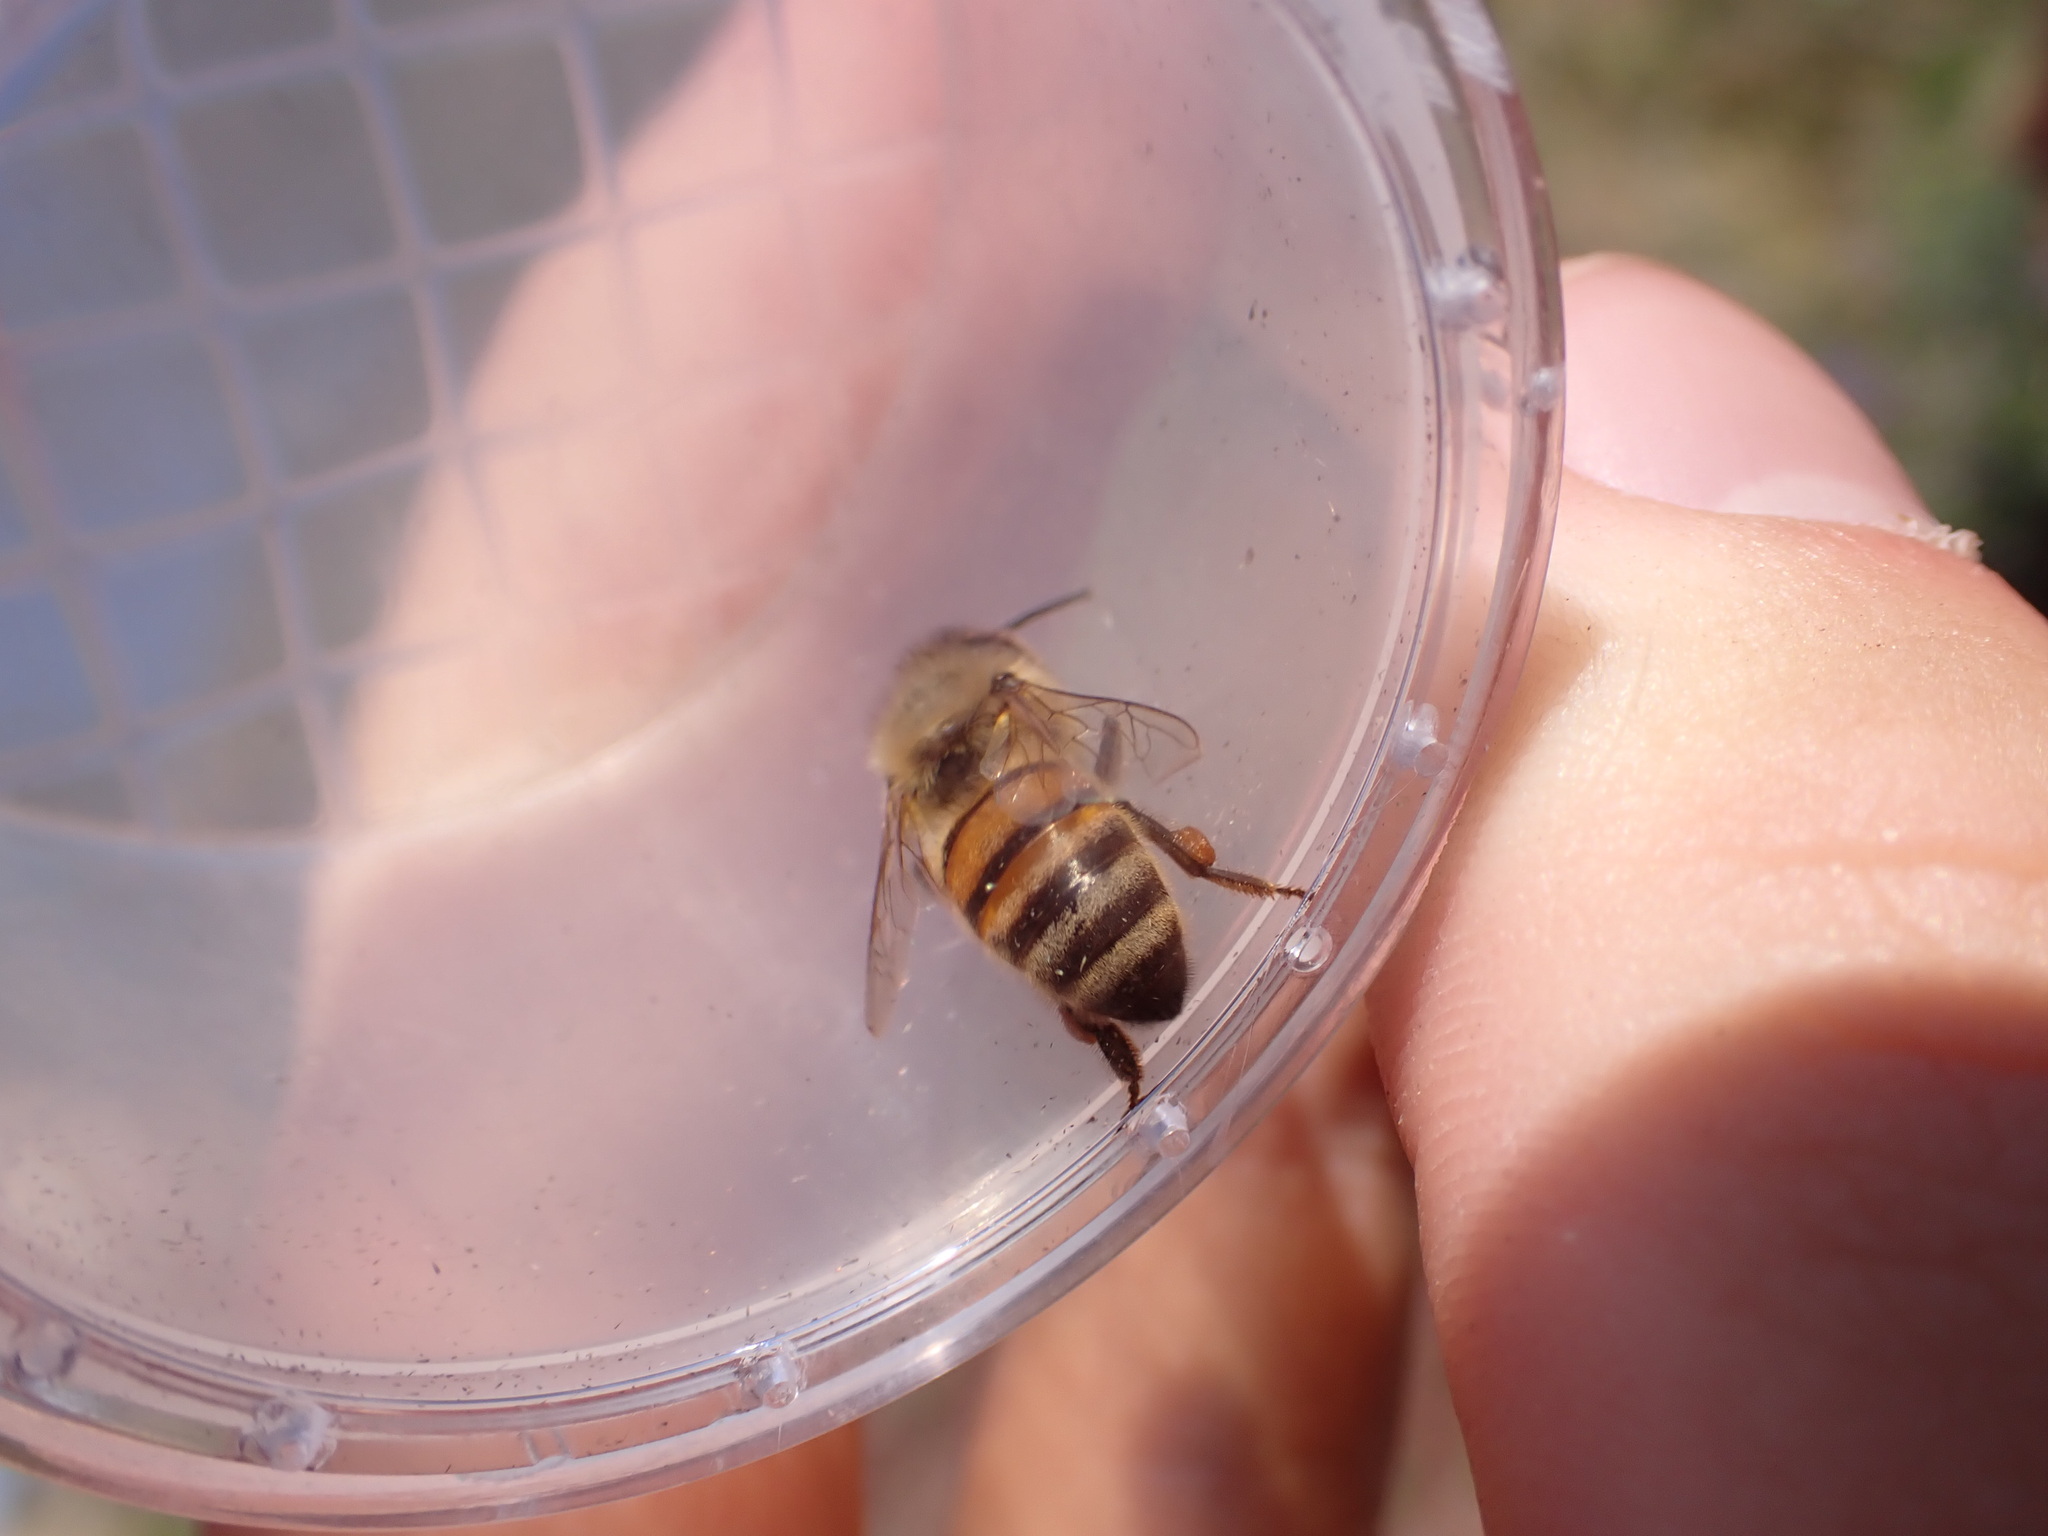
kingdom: Animalia
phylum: Arthropoda
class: Insecta
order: Hymenoptera
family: Apidae
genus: Apis
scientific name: Apis mellifera
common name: Honey bee
